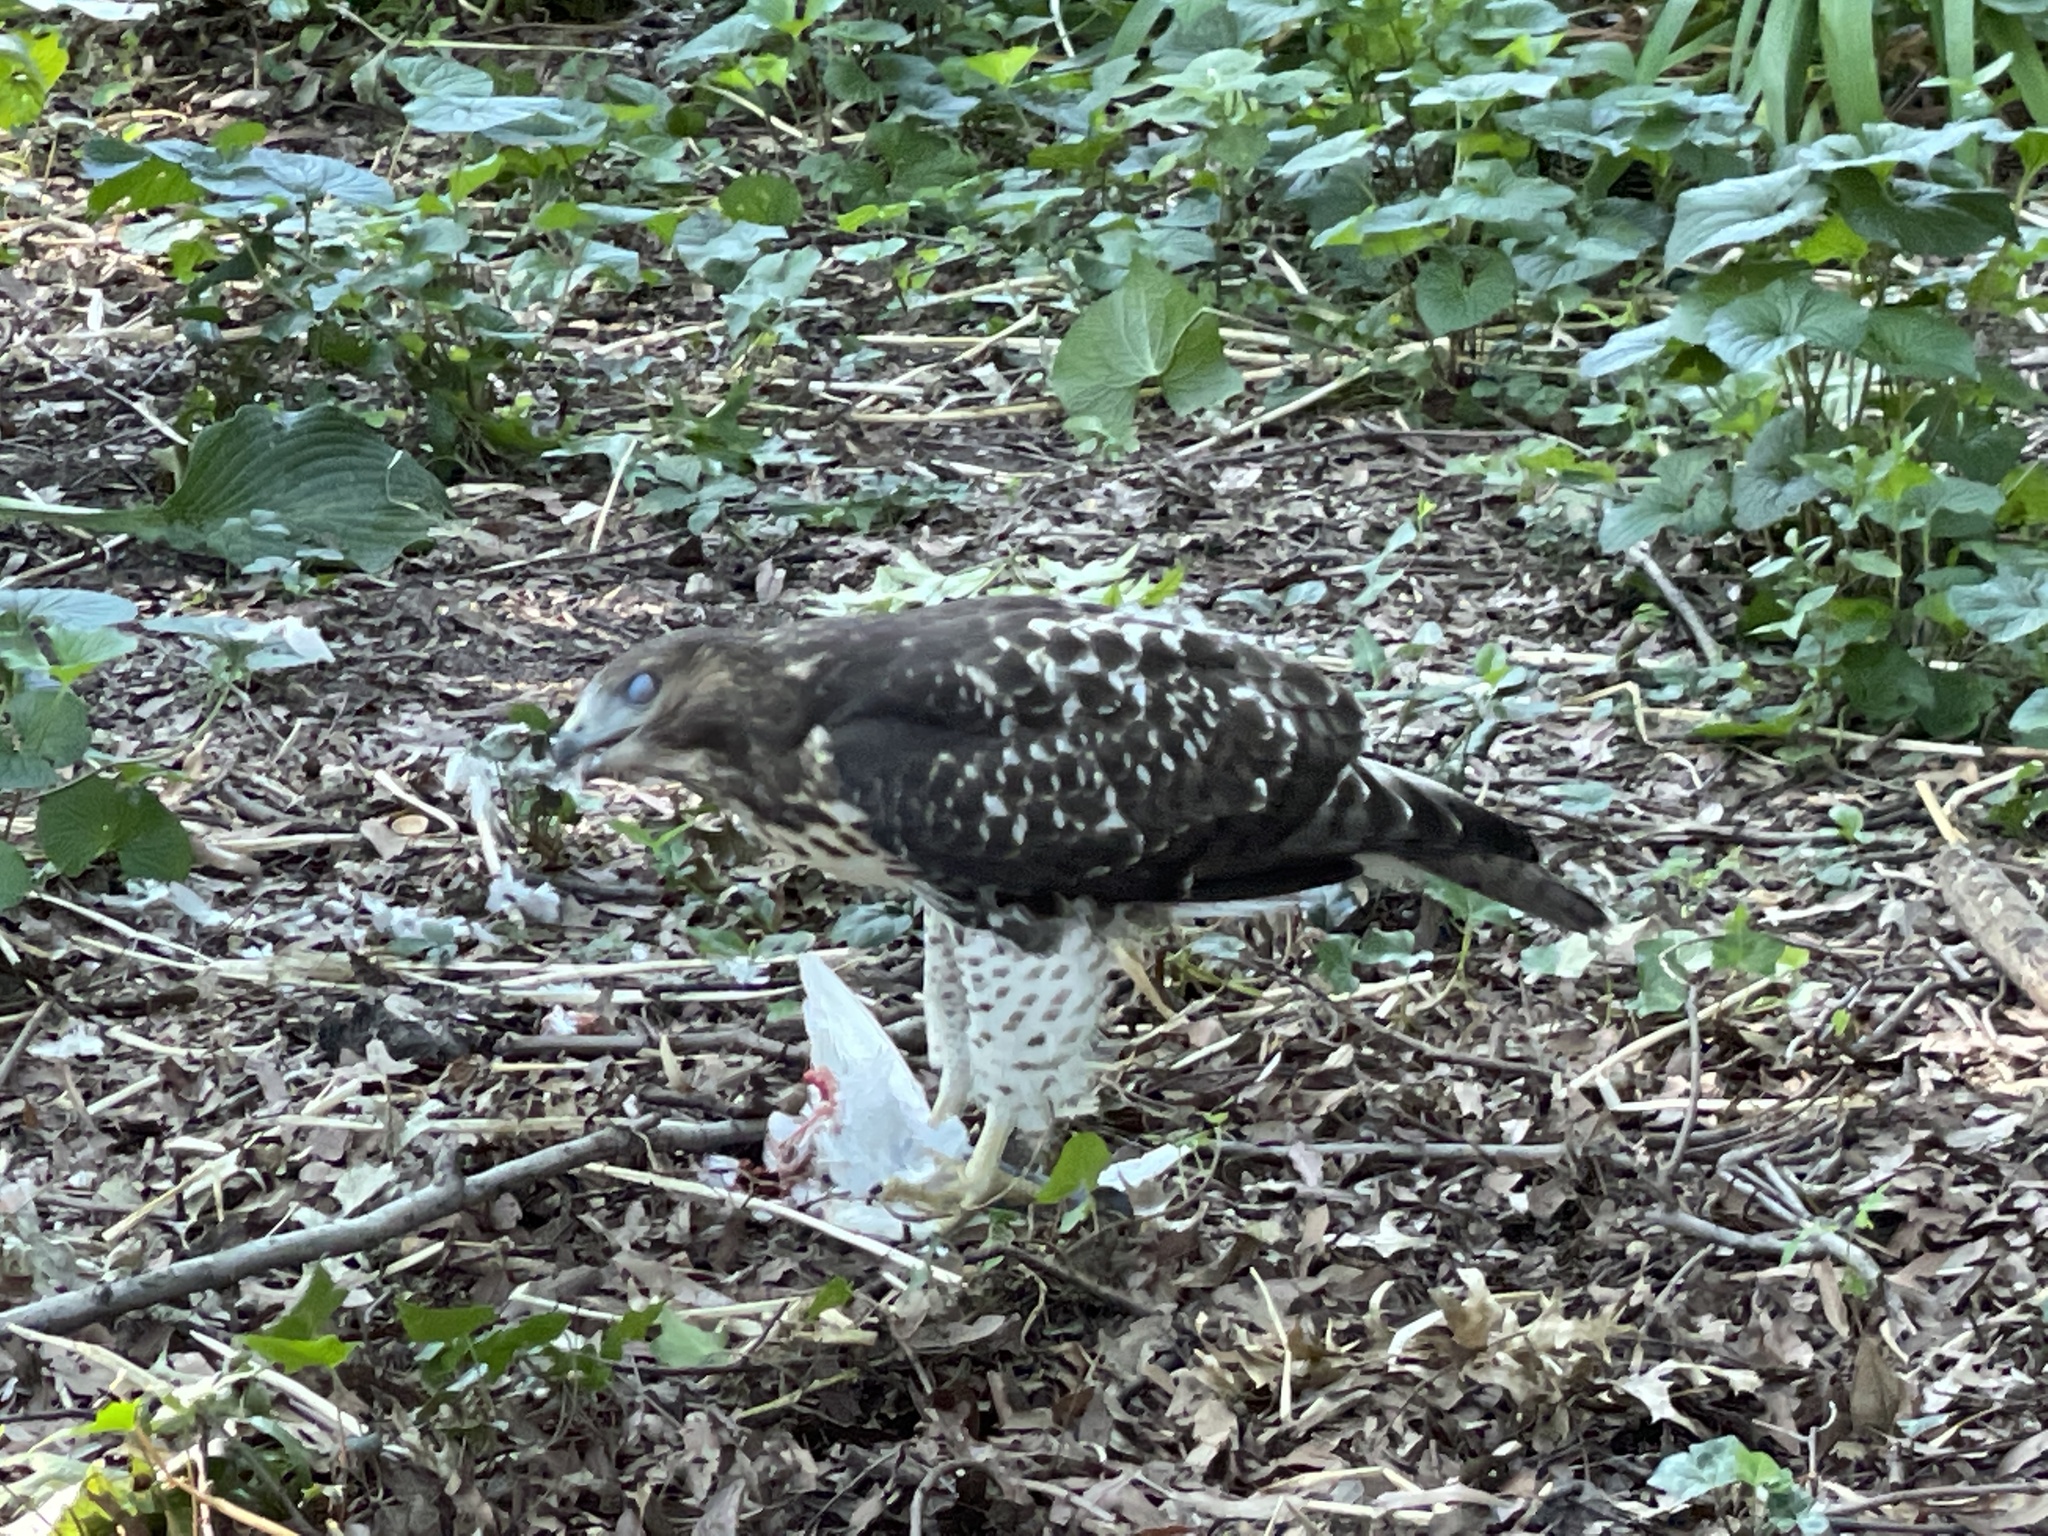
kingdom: Animalia
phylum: Chordata
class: Aves
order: Accipitriformes
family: Accipitridae
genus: Buteo
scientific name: Buteo jamaicensis
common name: Red-tailed hawk
